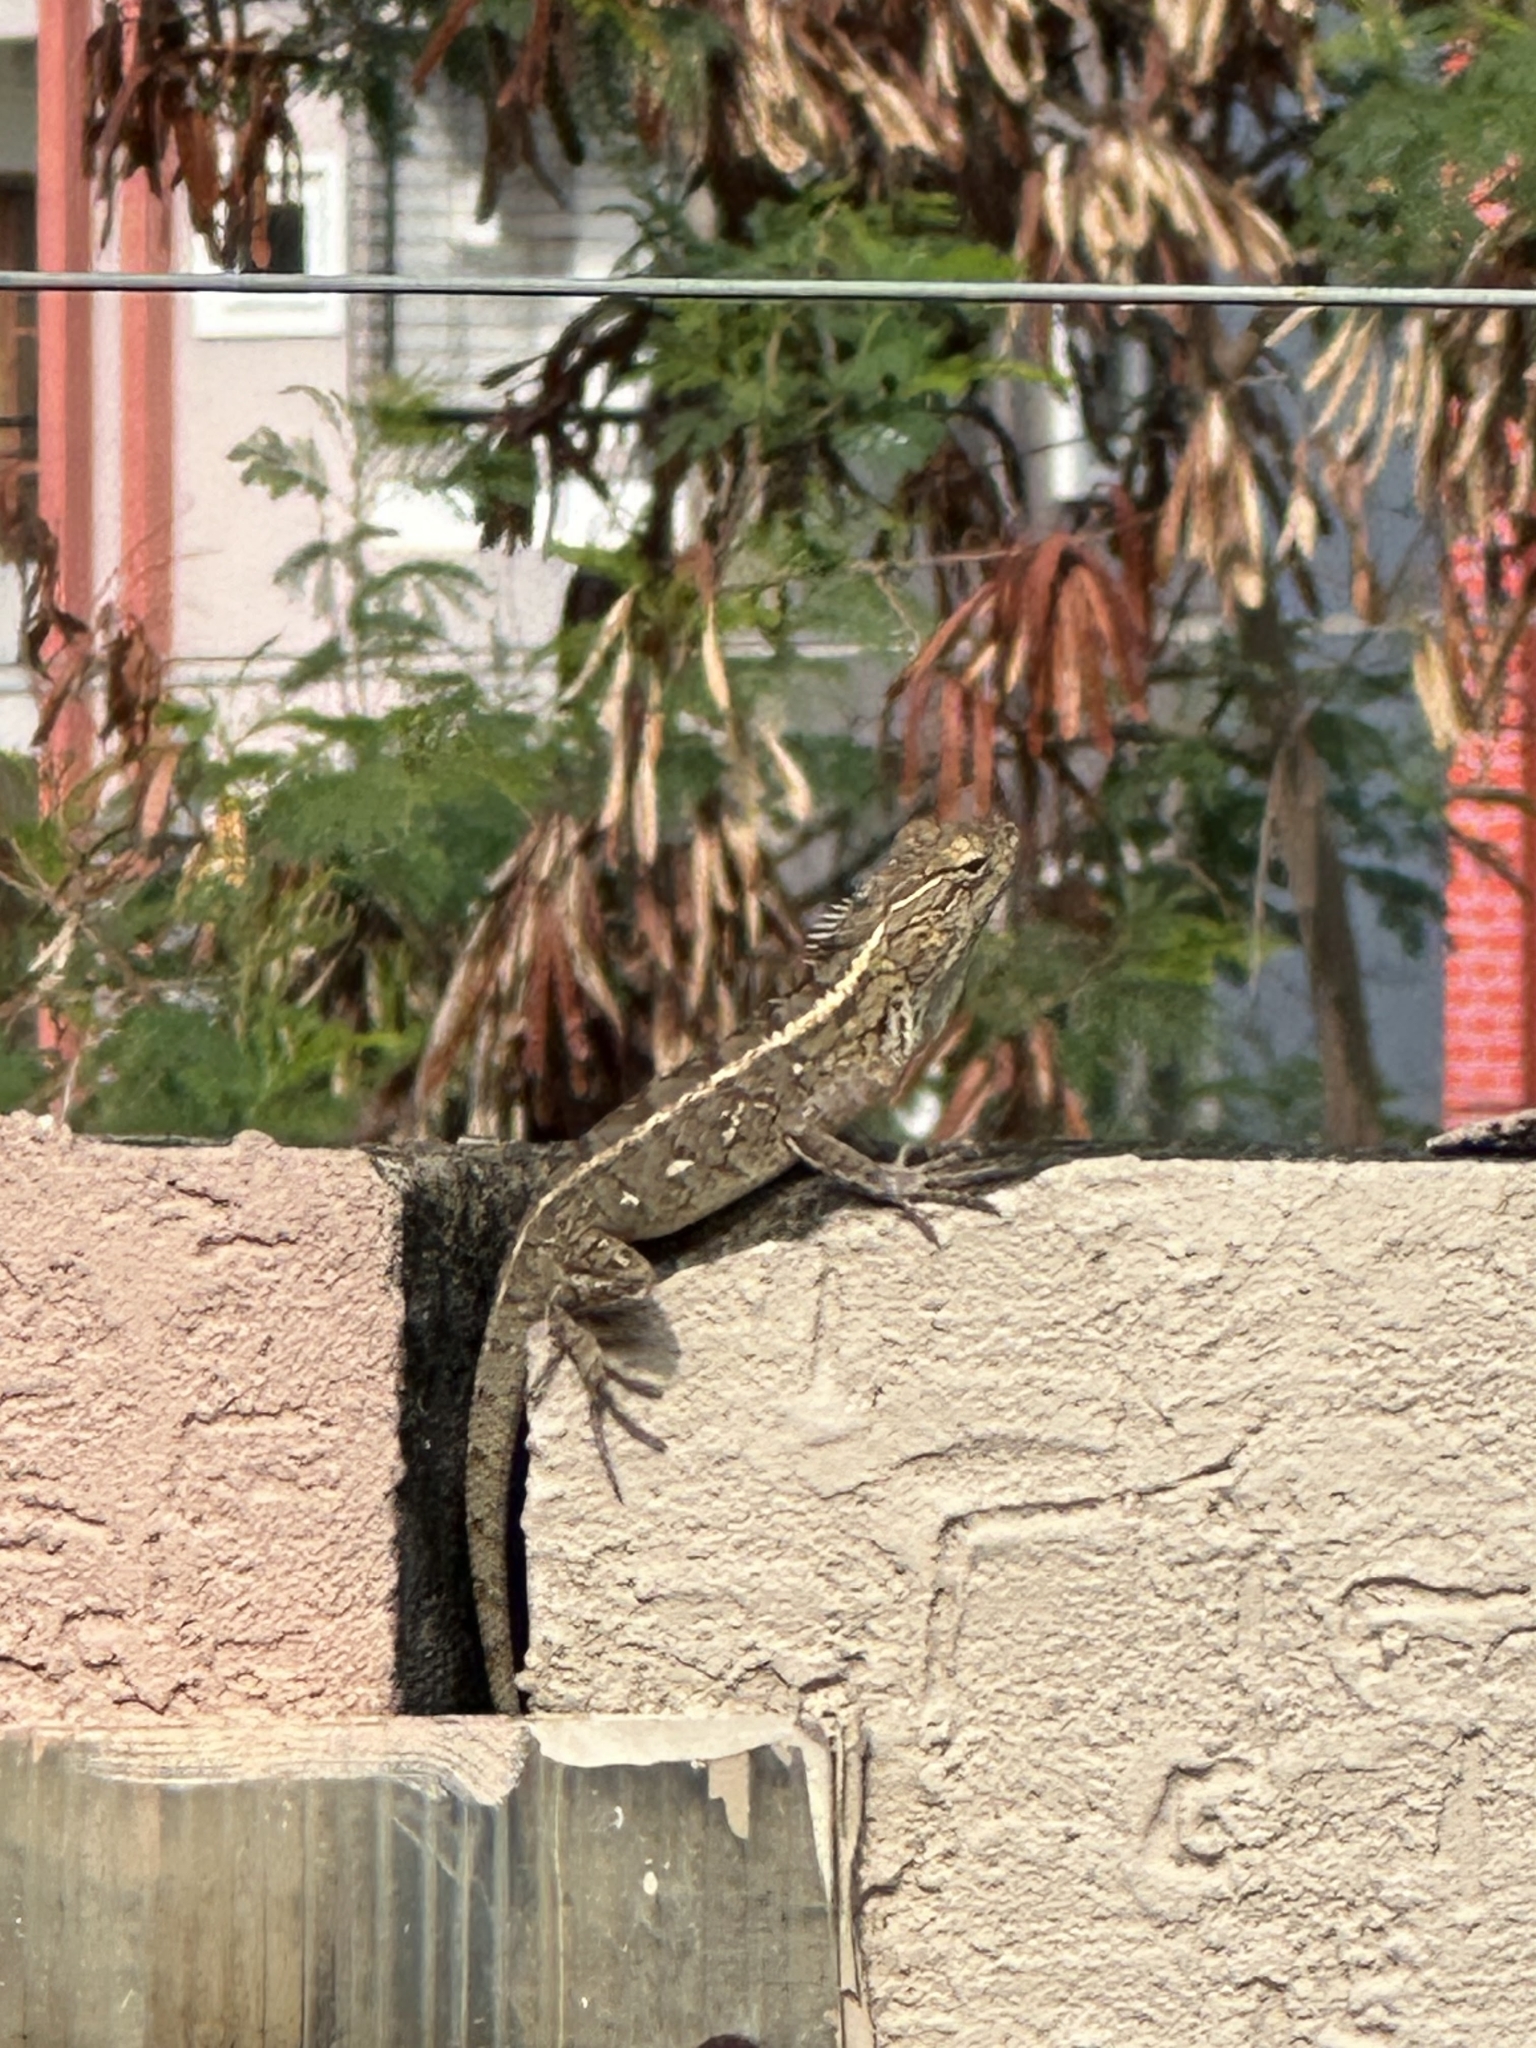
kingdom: Animalia
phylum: Chordata
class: Squamata
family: Agamidae
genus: Calotes
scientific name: Calotes versicolor
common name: Oriental garden lizard
